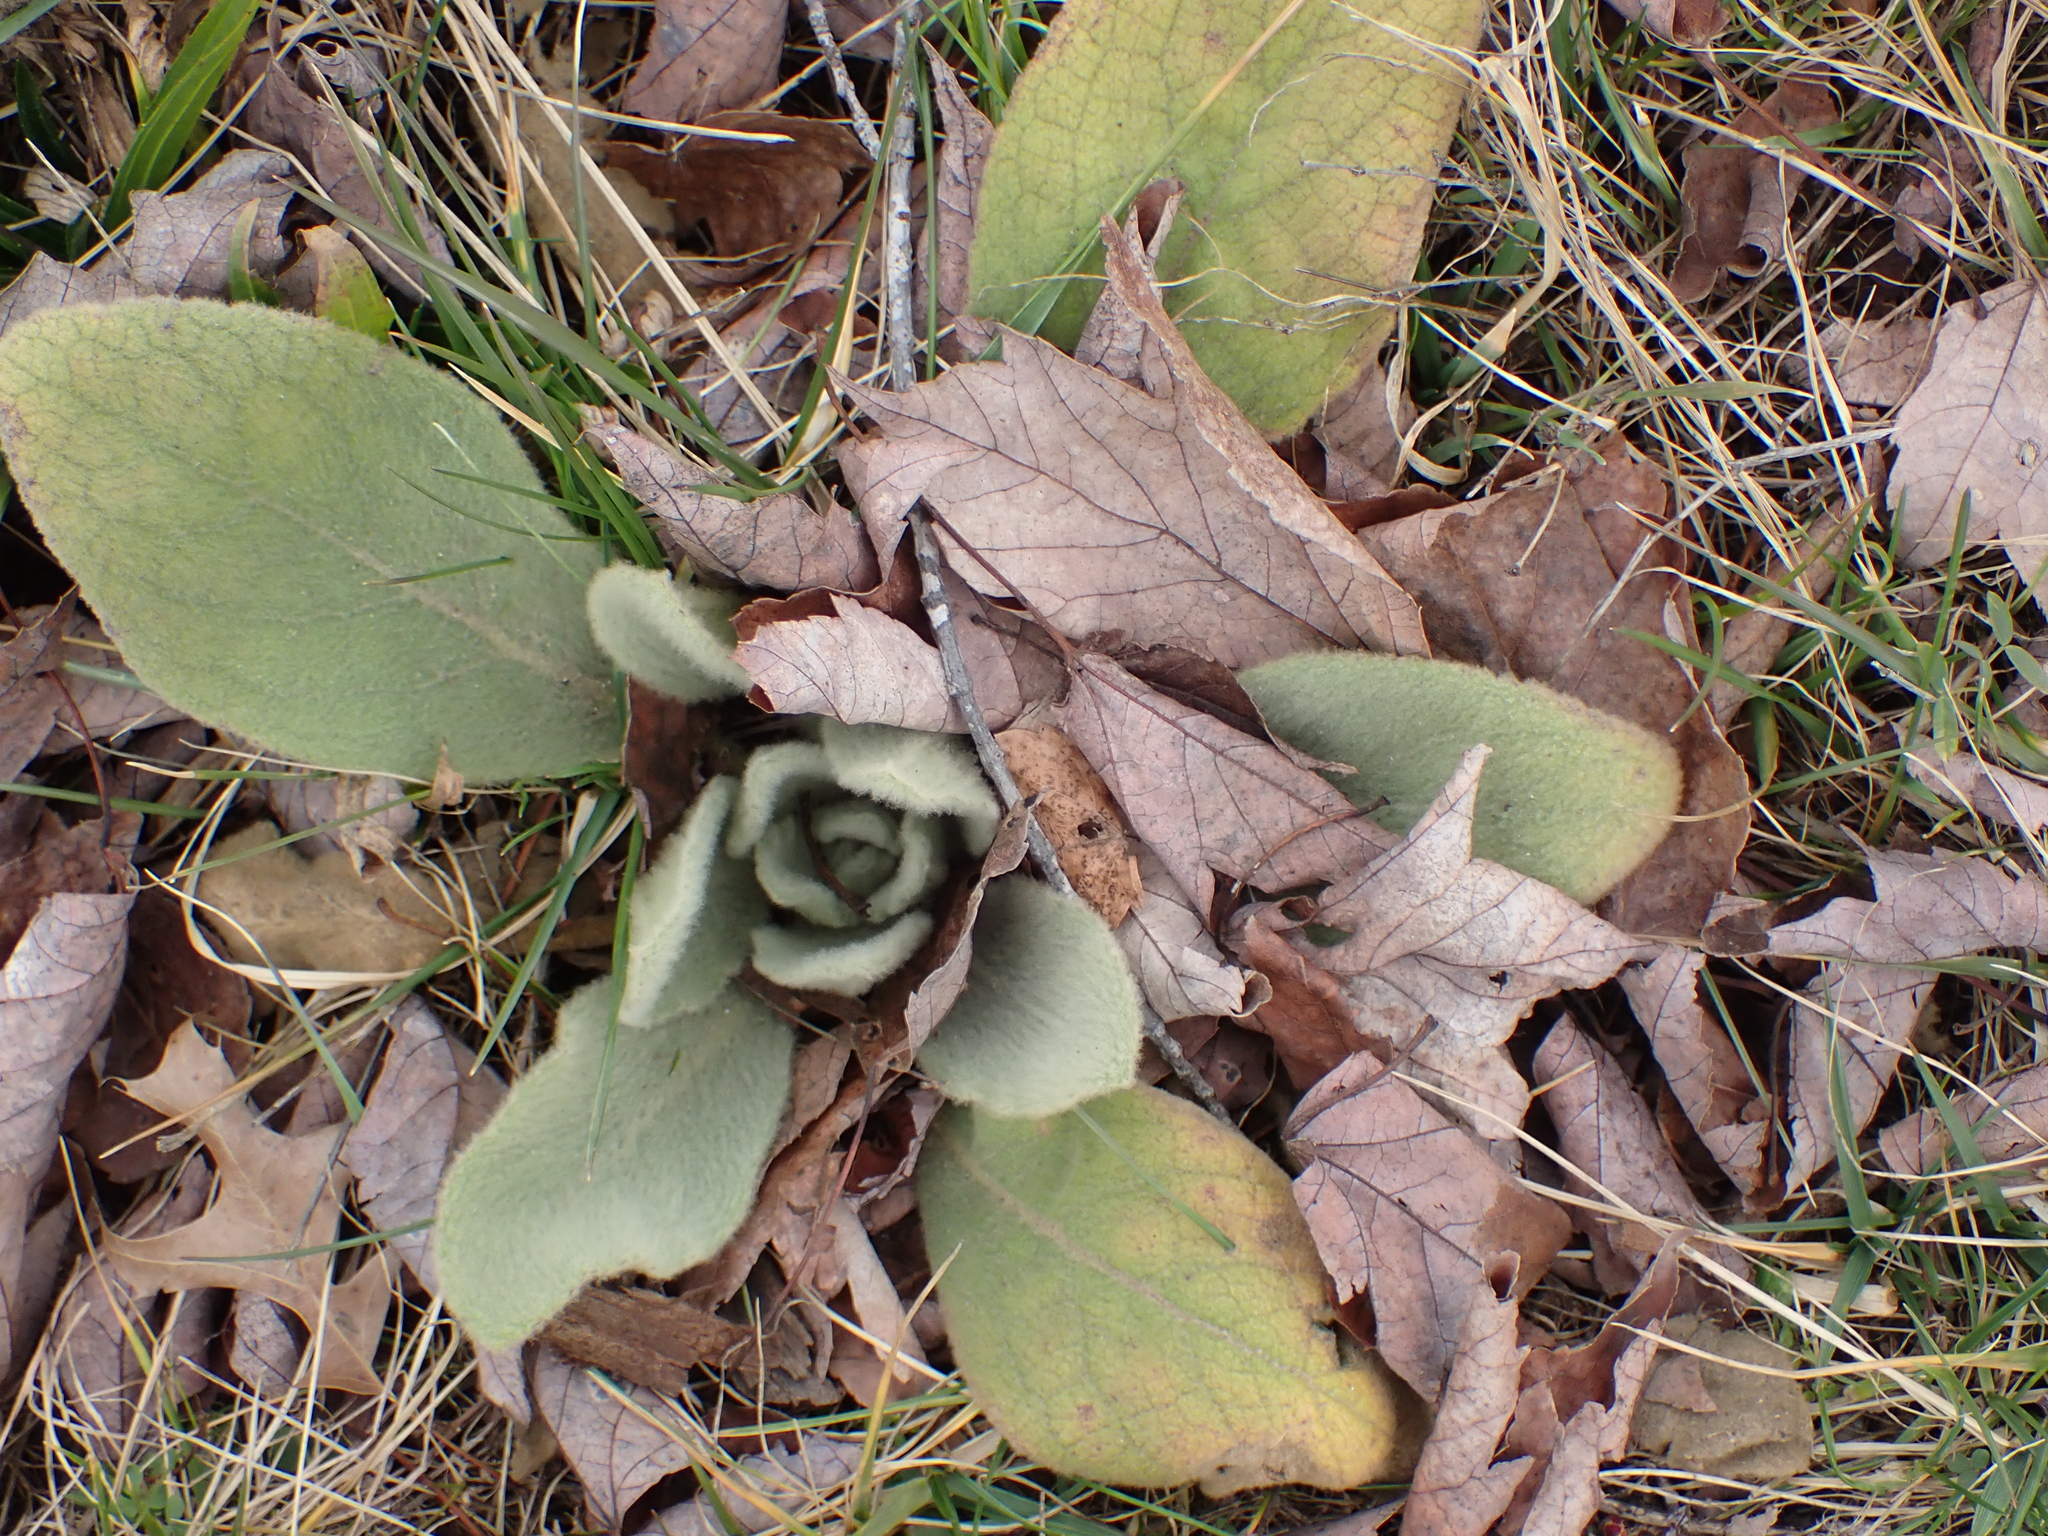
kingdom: Plantae
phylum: Tracheophyta
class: Magnoliopsida
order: Lamiales
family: Scrophulariaceae
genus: Verbascum
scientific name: Verbascum thapsus
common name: Common mullein
